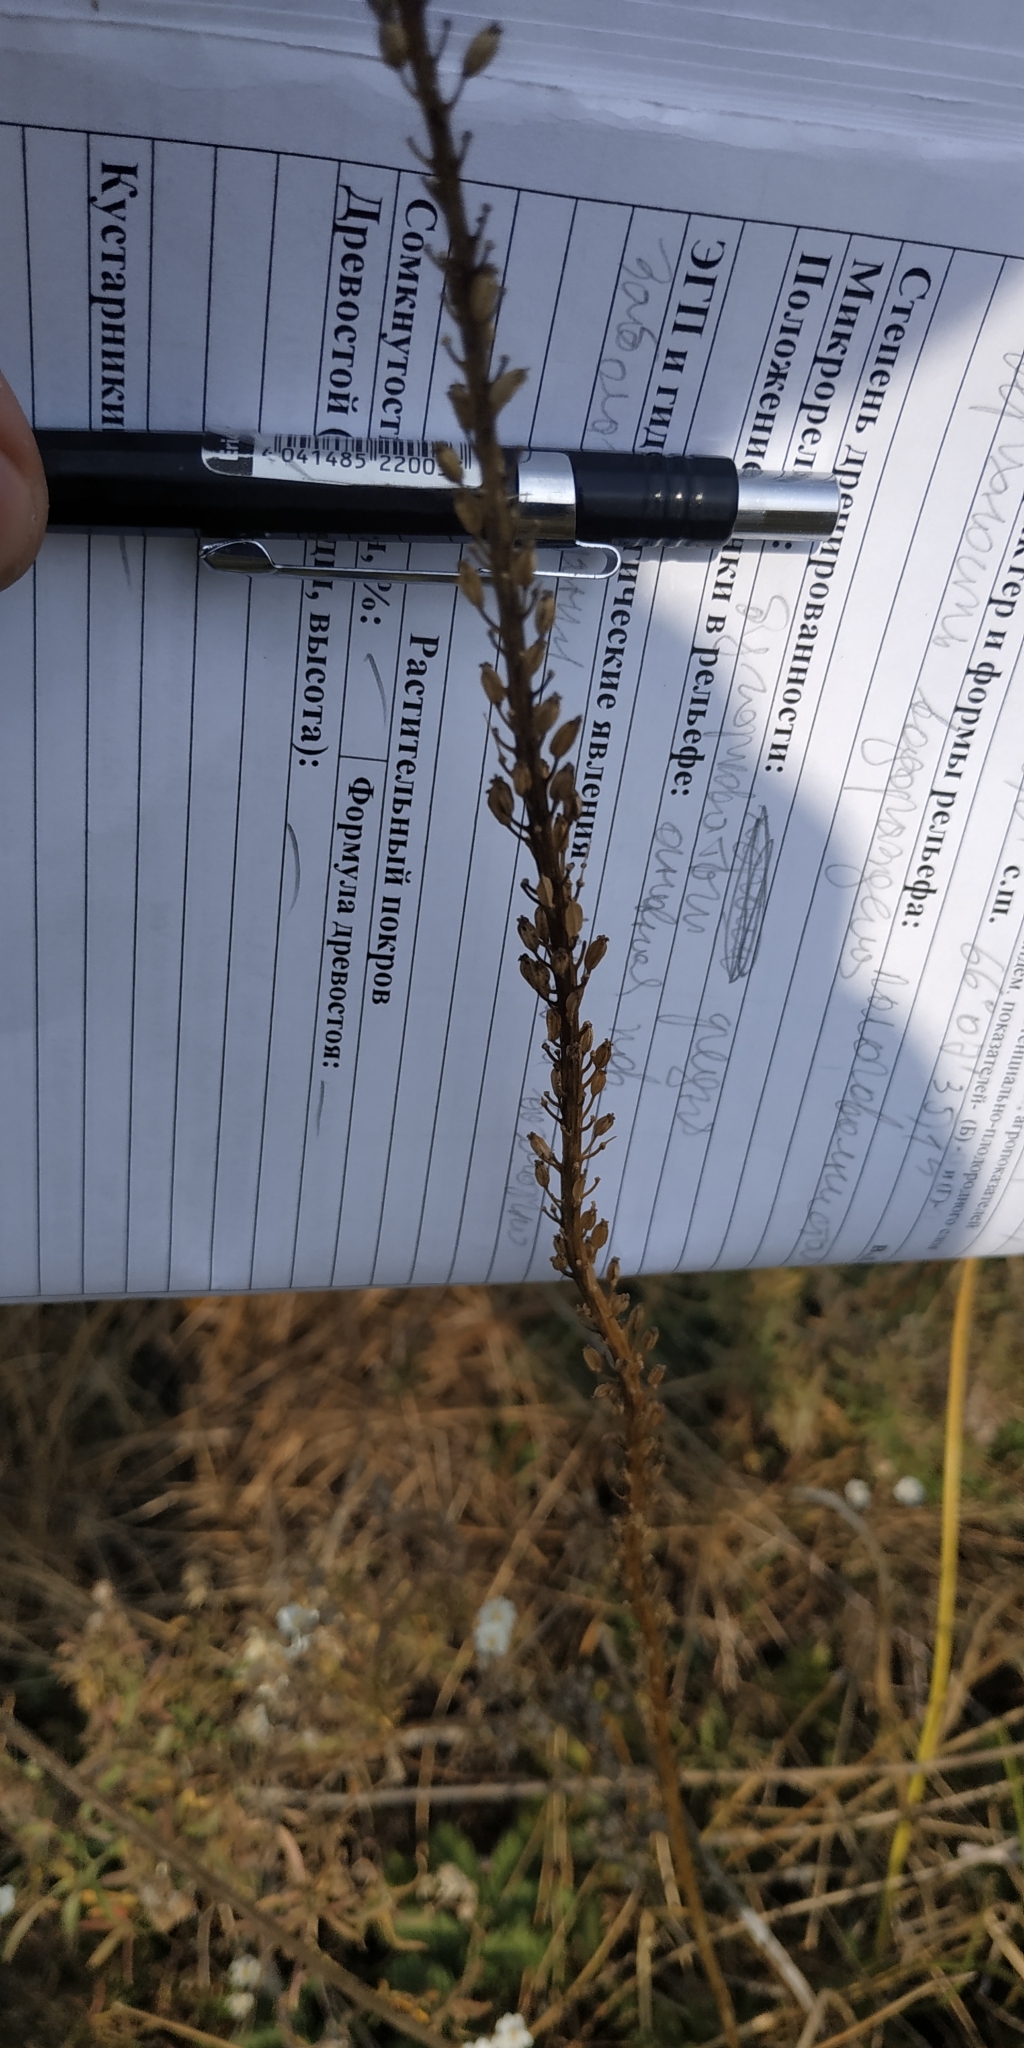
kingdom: Plantae
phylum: Tracheophyta
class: Liliopsida
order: Alismatales
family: Juncaginaceae
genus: Triglochin
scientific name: Triglochin maritima
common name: Sea arrowgrass
